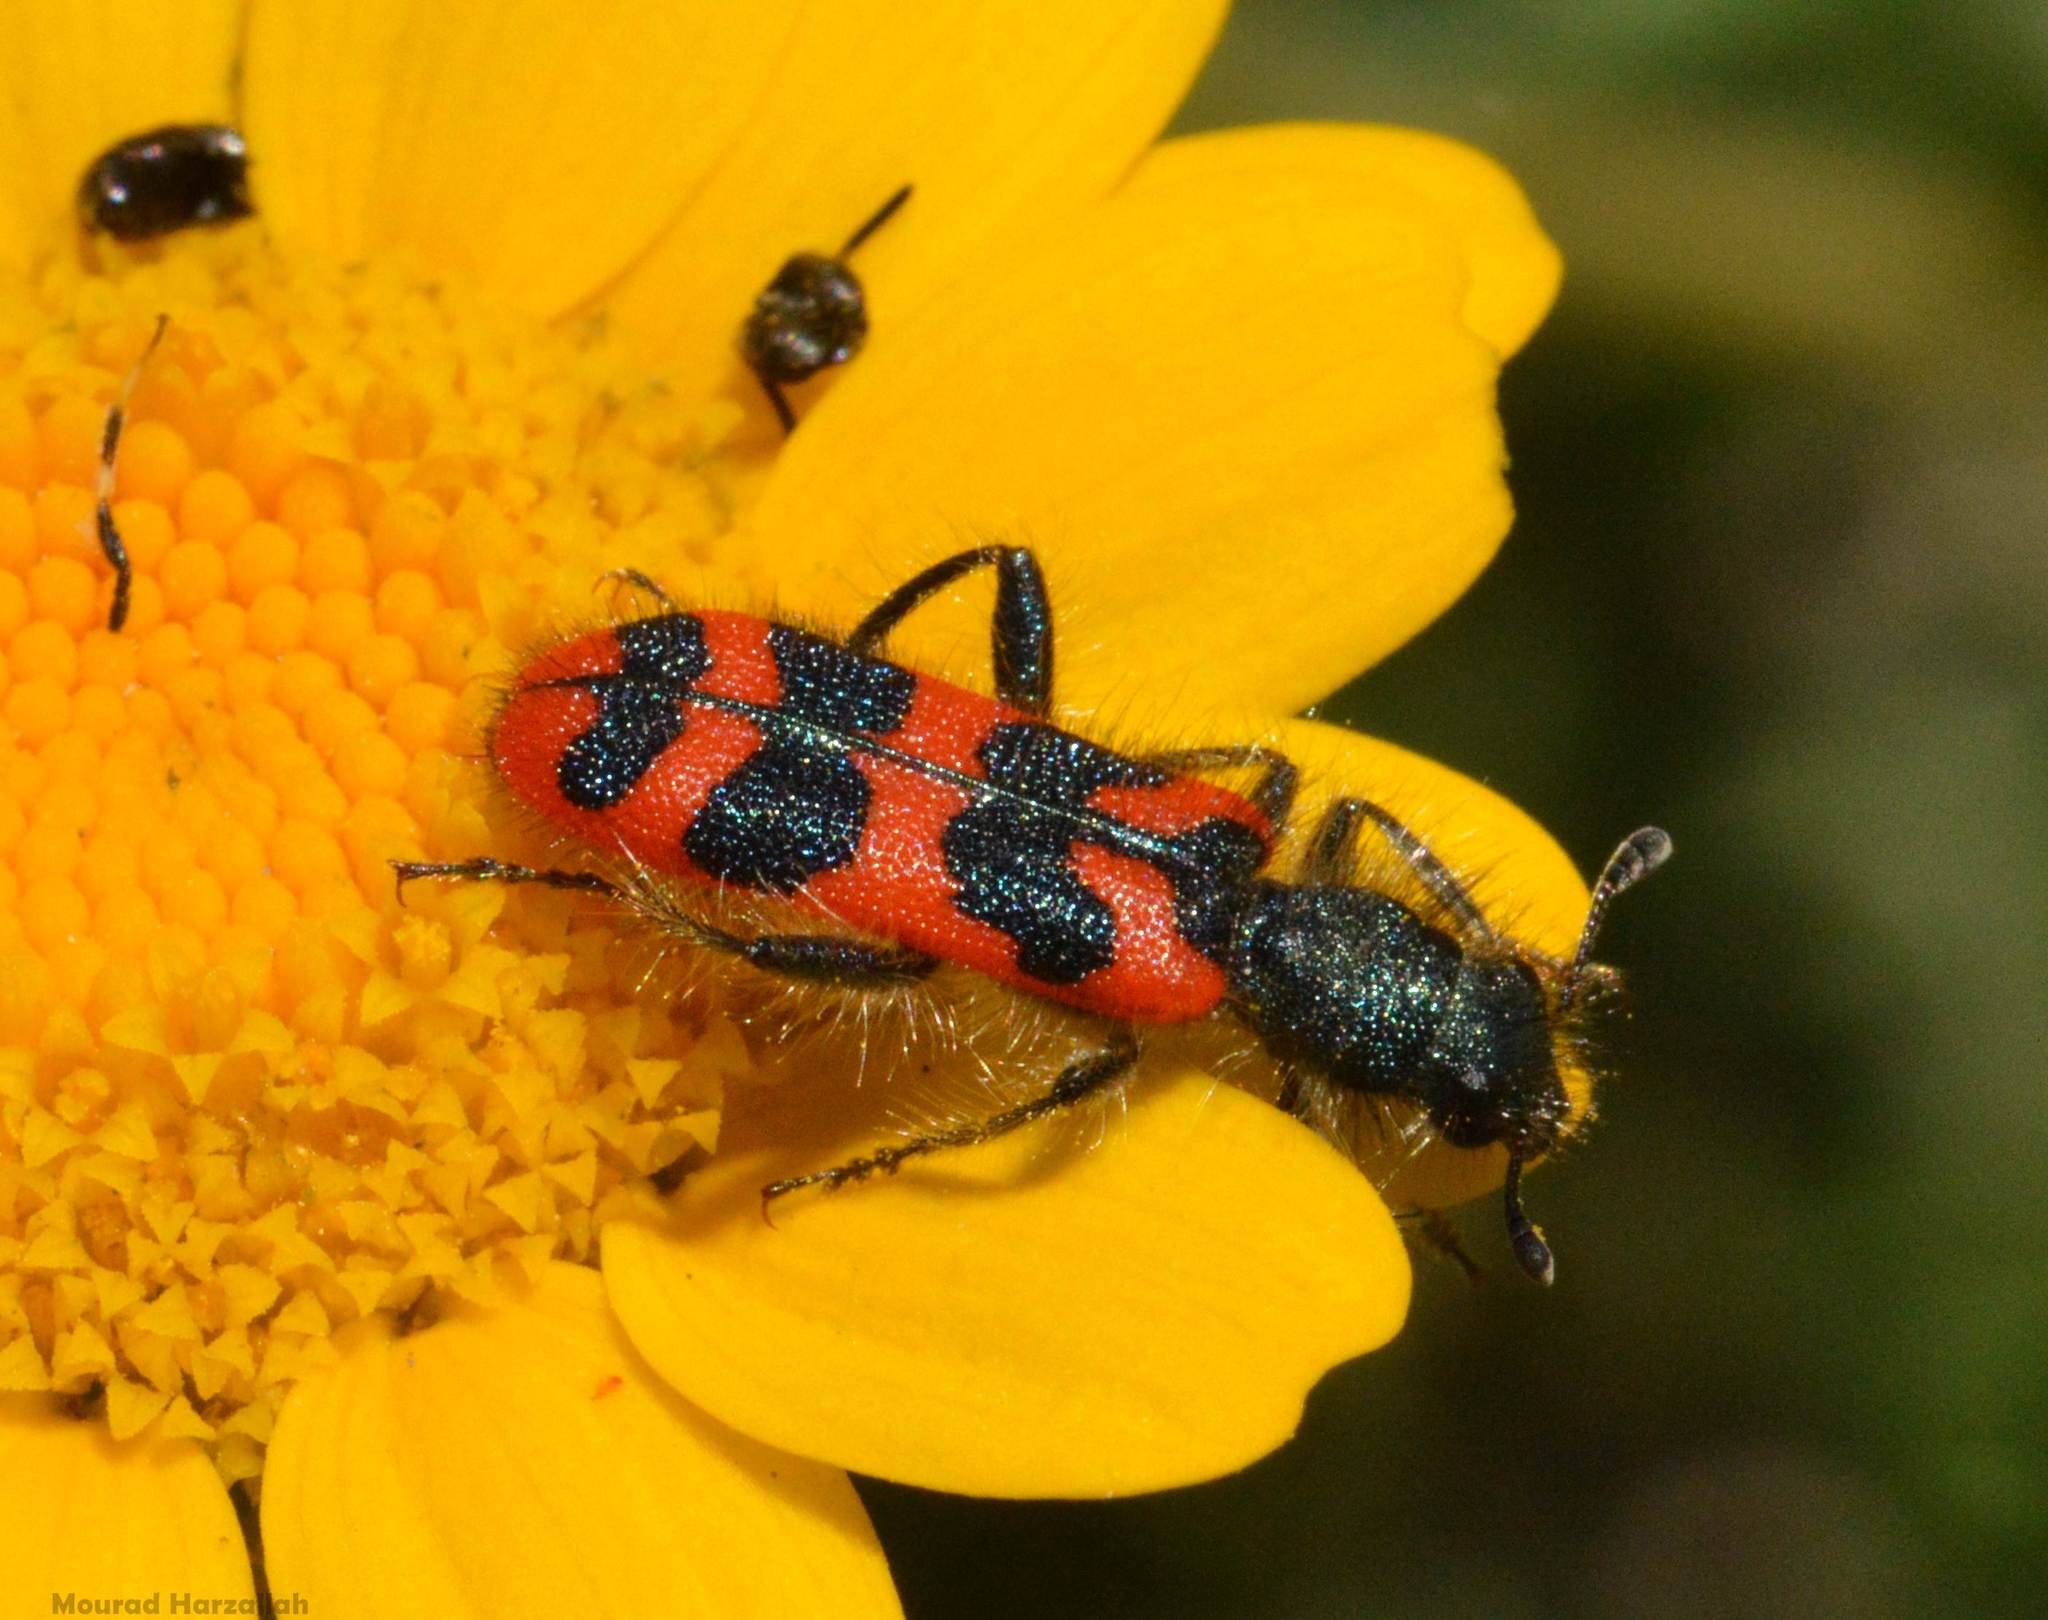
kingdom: Animalia
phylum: Arthropoda
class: Insecta
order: Coleoptera
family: Cleridae
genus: Trichodes
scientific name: Trichodes umbellatarum
